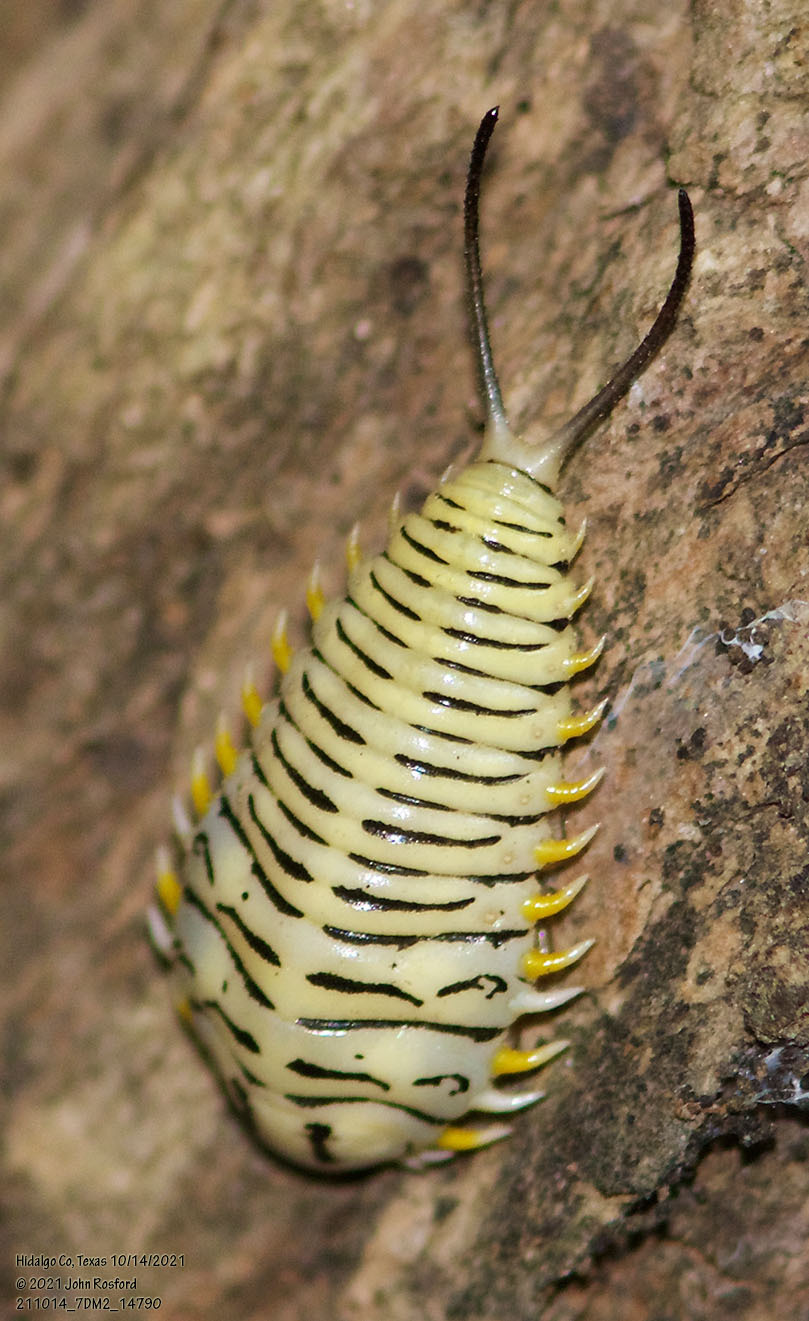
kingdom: Animalia
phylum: Arthropoda
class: Insecta
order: Coleoptera
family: Chrysomelidae
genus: Physonota
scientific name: Physonota alutacea
